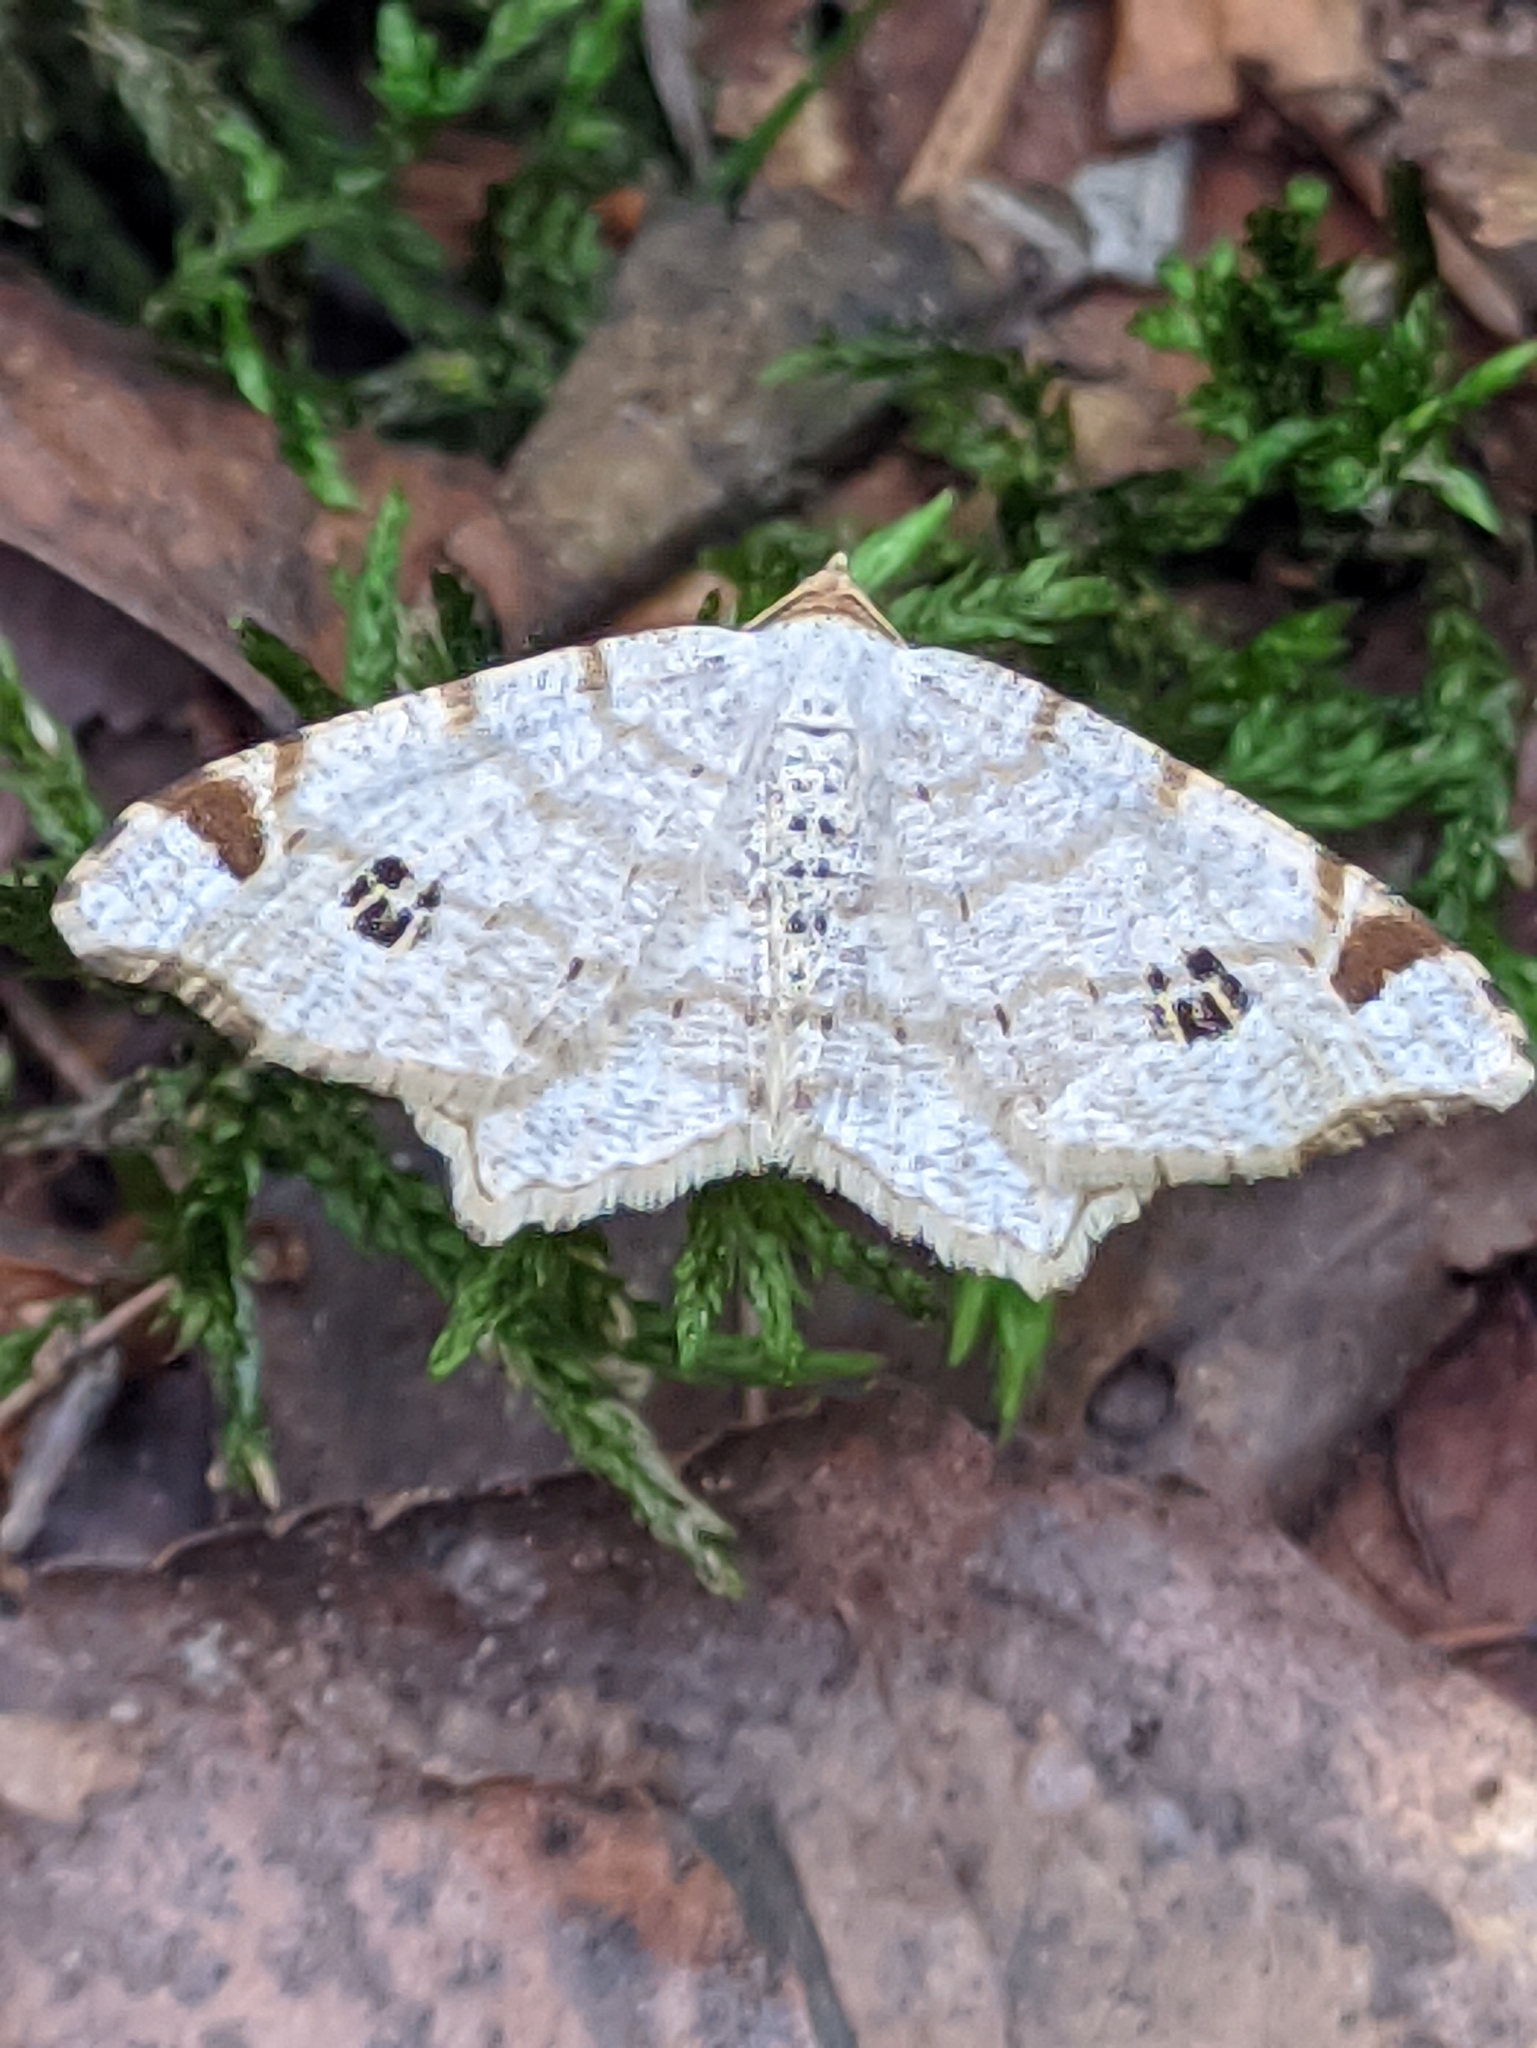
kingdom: Animalia
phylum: Arthropoda
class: Insecta
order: Lepidoptera
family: Geometridae
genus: Macaria
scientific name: Macaria notata
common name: Peacock moth
